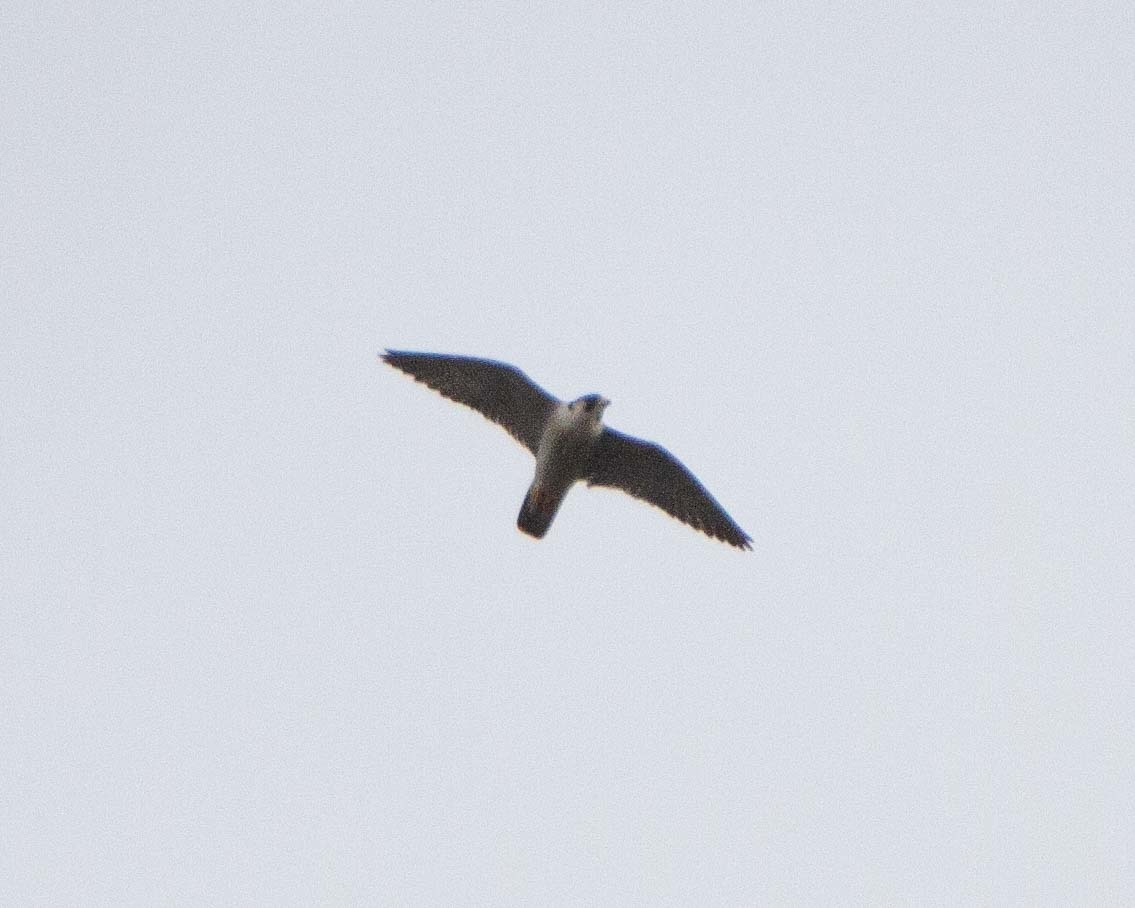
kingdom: Animalia
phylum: Chordata
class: Aves
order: Falconiformes
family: Falconidae
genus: Falco
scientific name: Falco peregrinus
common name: Peregrine falcon
